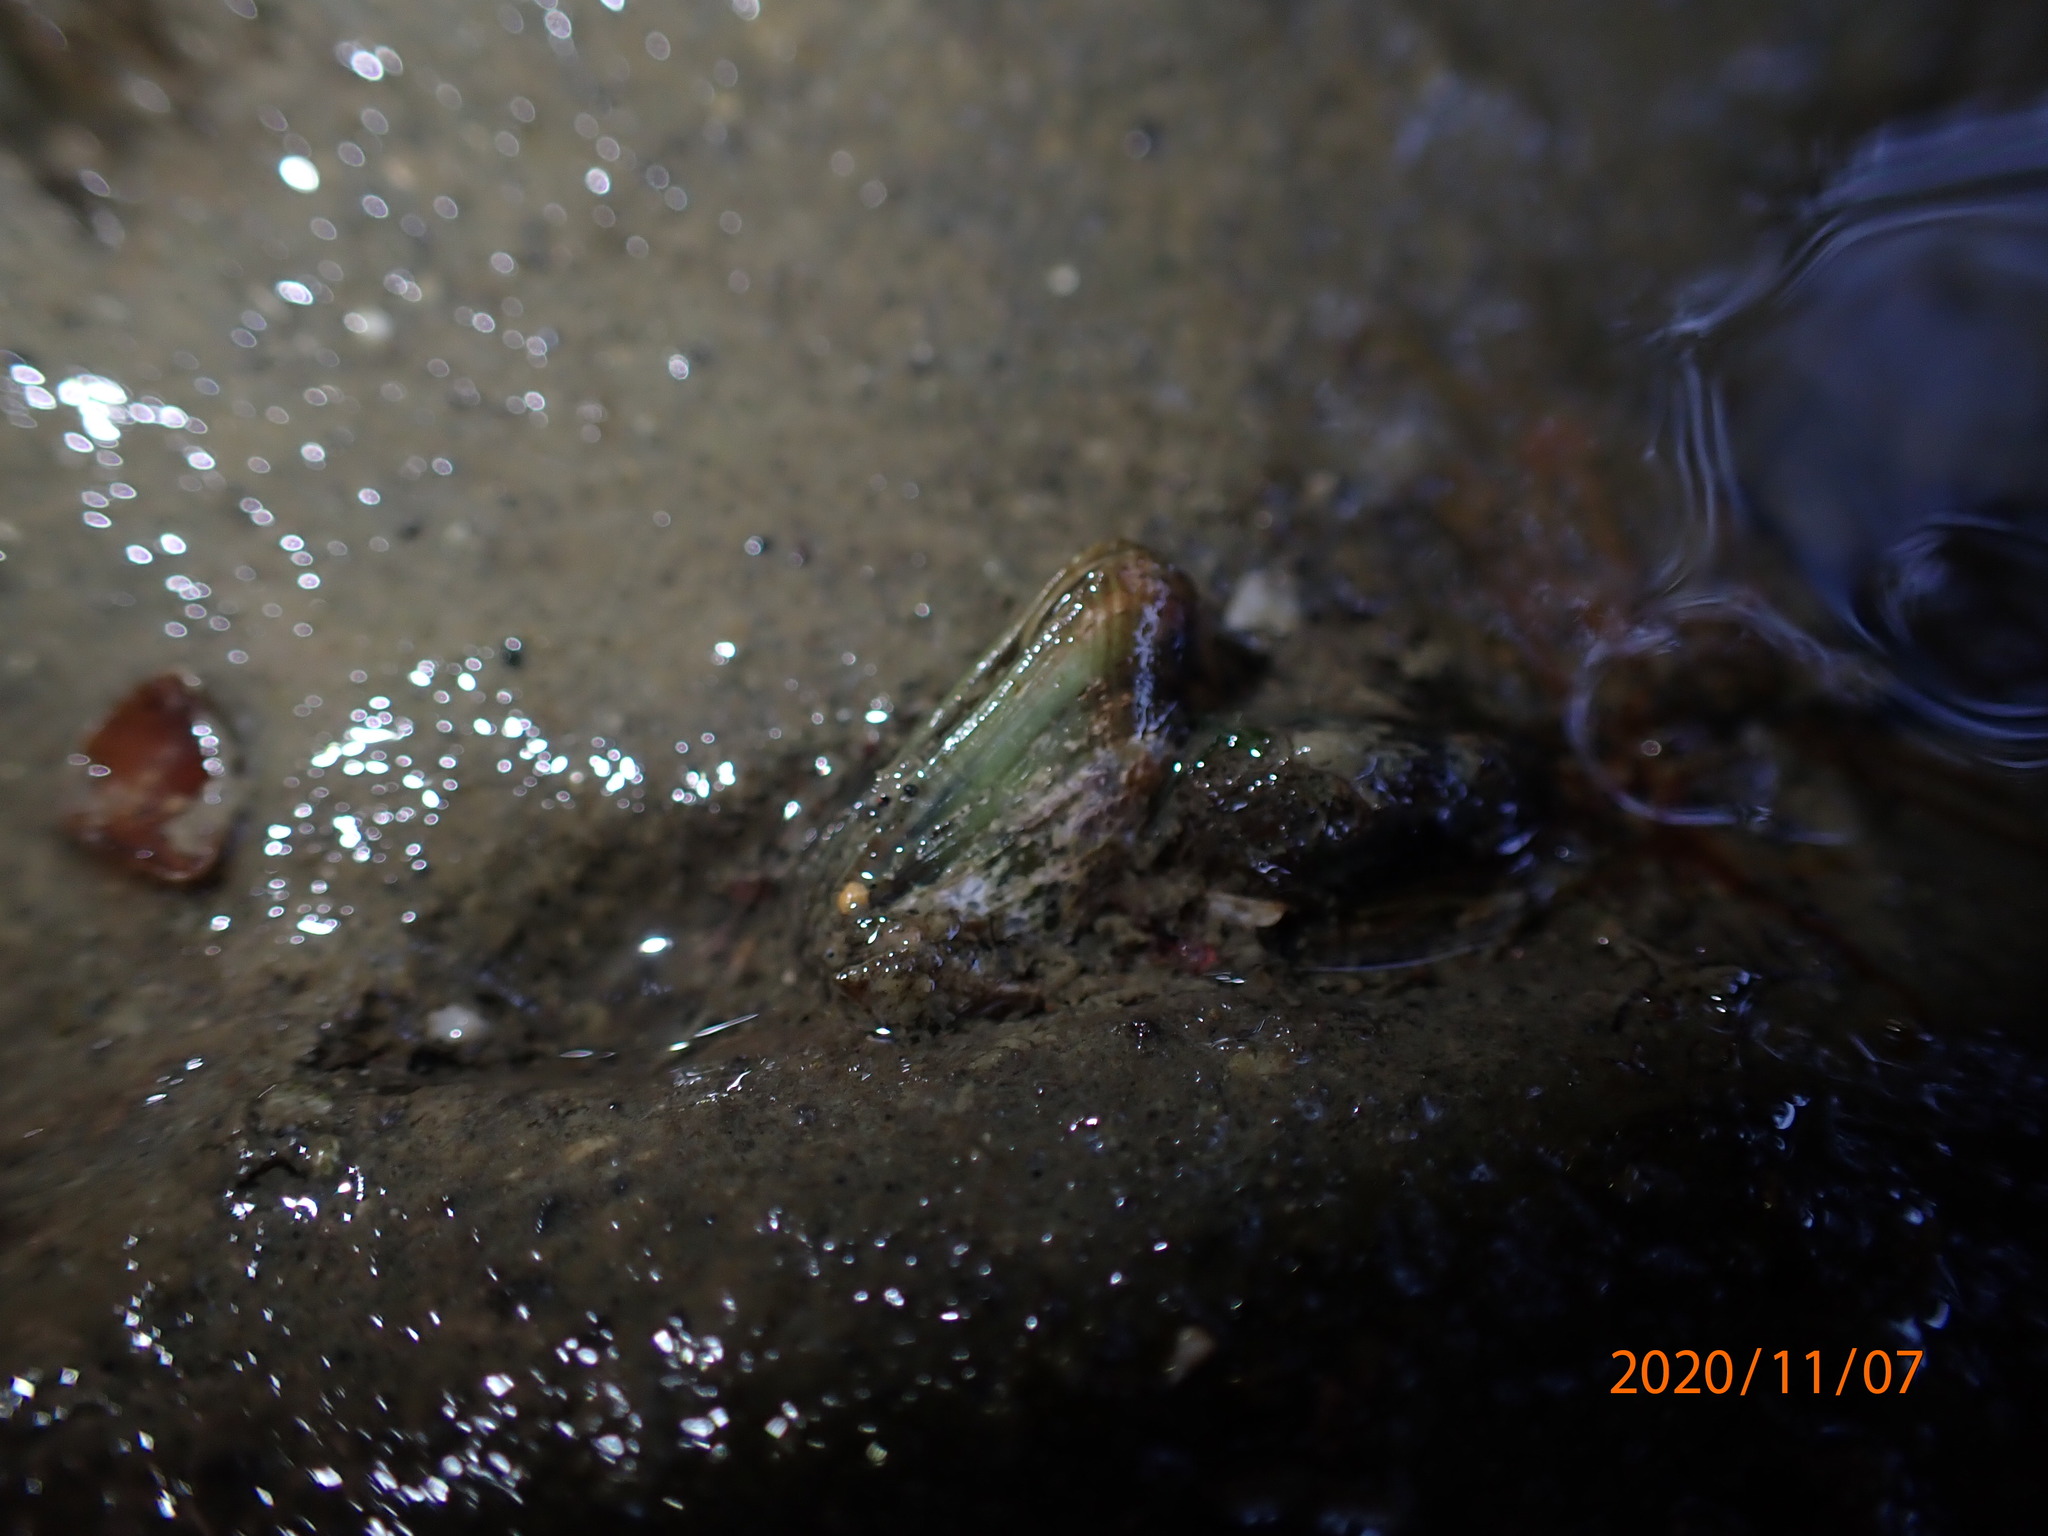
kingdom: Animalia
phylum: Mollusca
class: Bivalvia
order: Mytilida
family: Mytilidae
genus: Arcuatula
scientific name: Arcuatula senhousia
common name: Asian mussel
